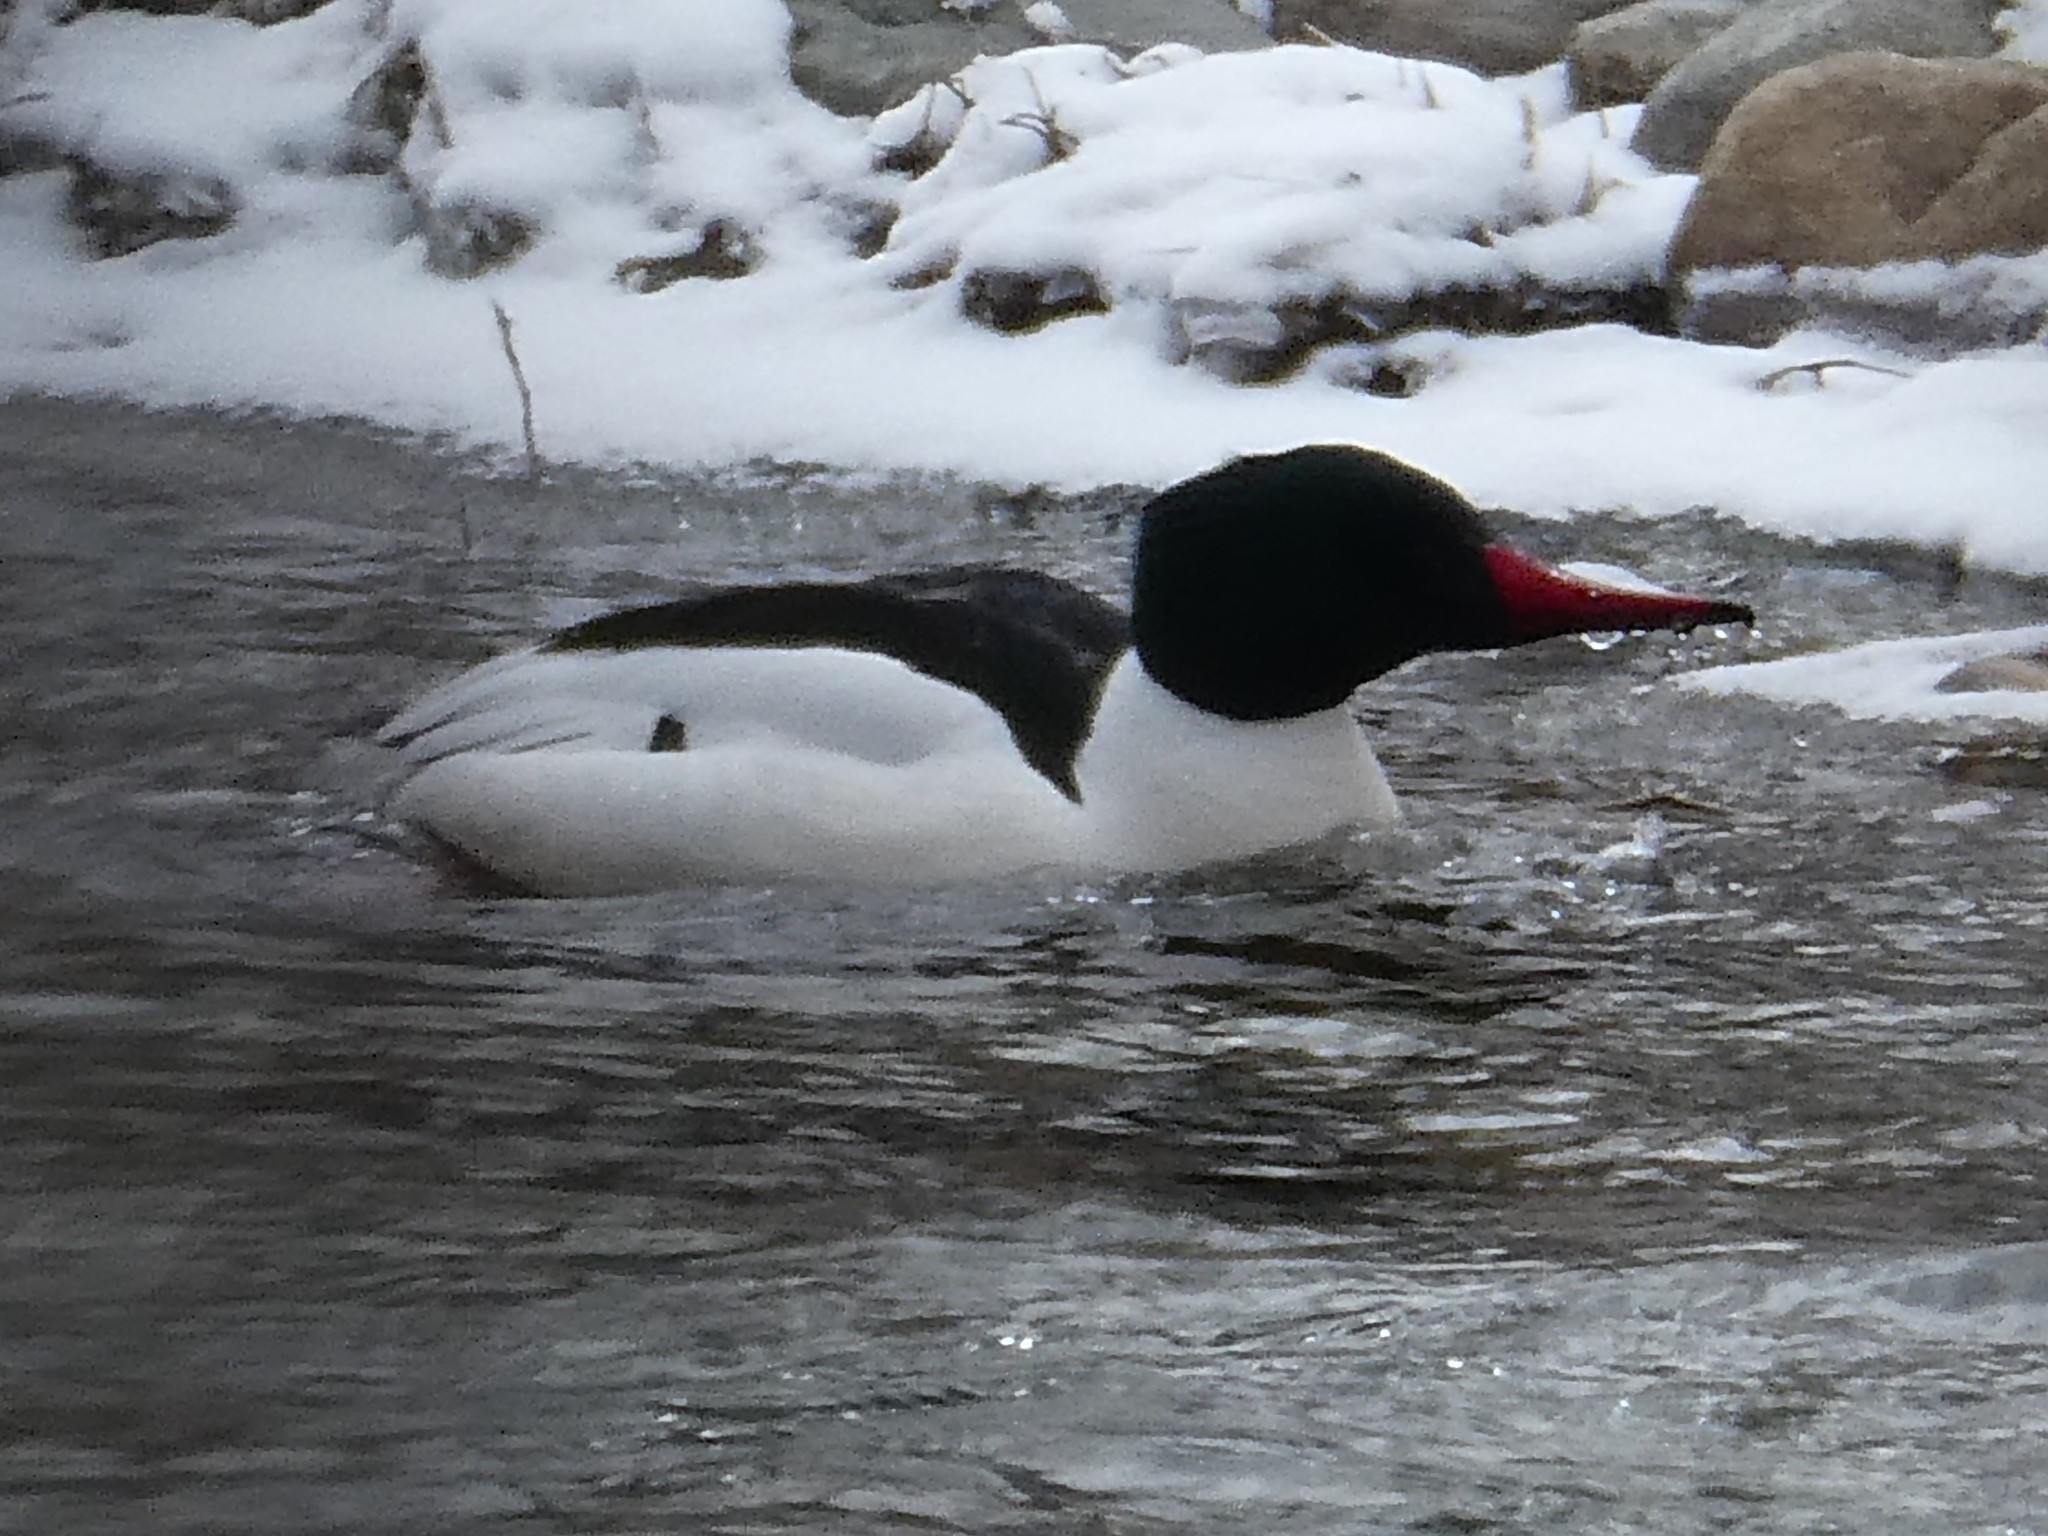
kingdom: Animalia
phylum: Chordata
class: Aves
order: Anseriformes
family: Anatidae
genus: Mergus
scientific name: Mergus merganser
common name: Common merganser
